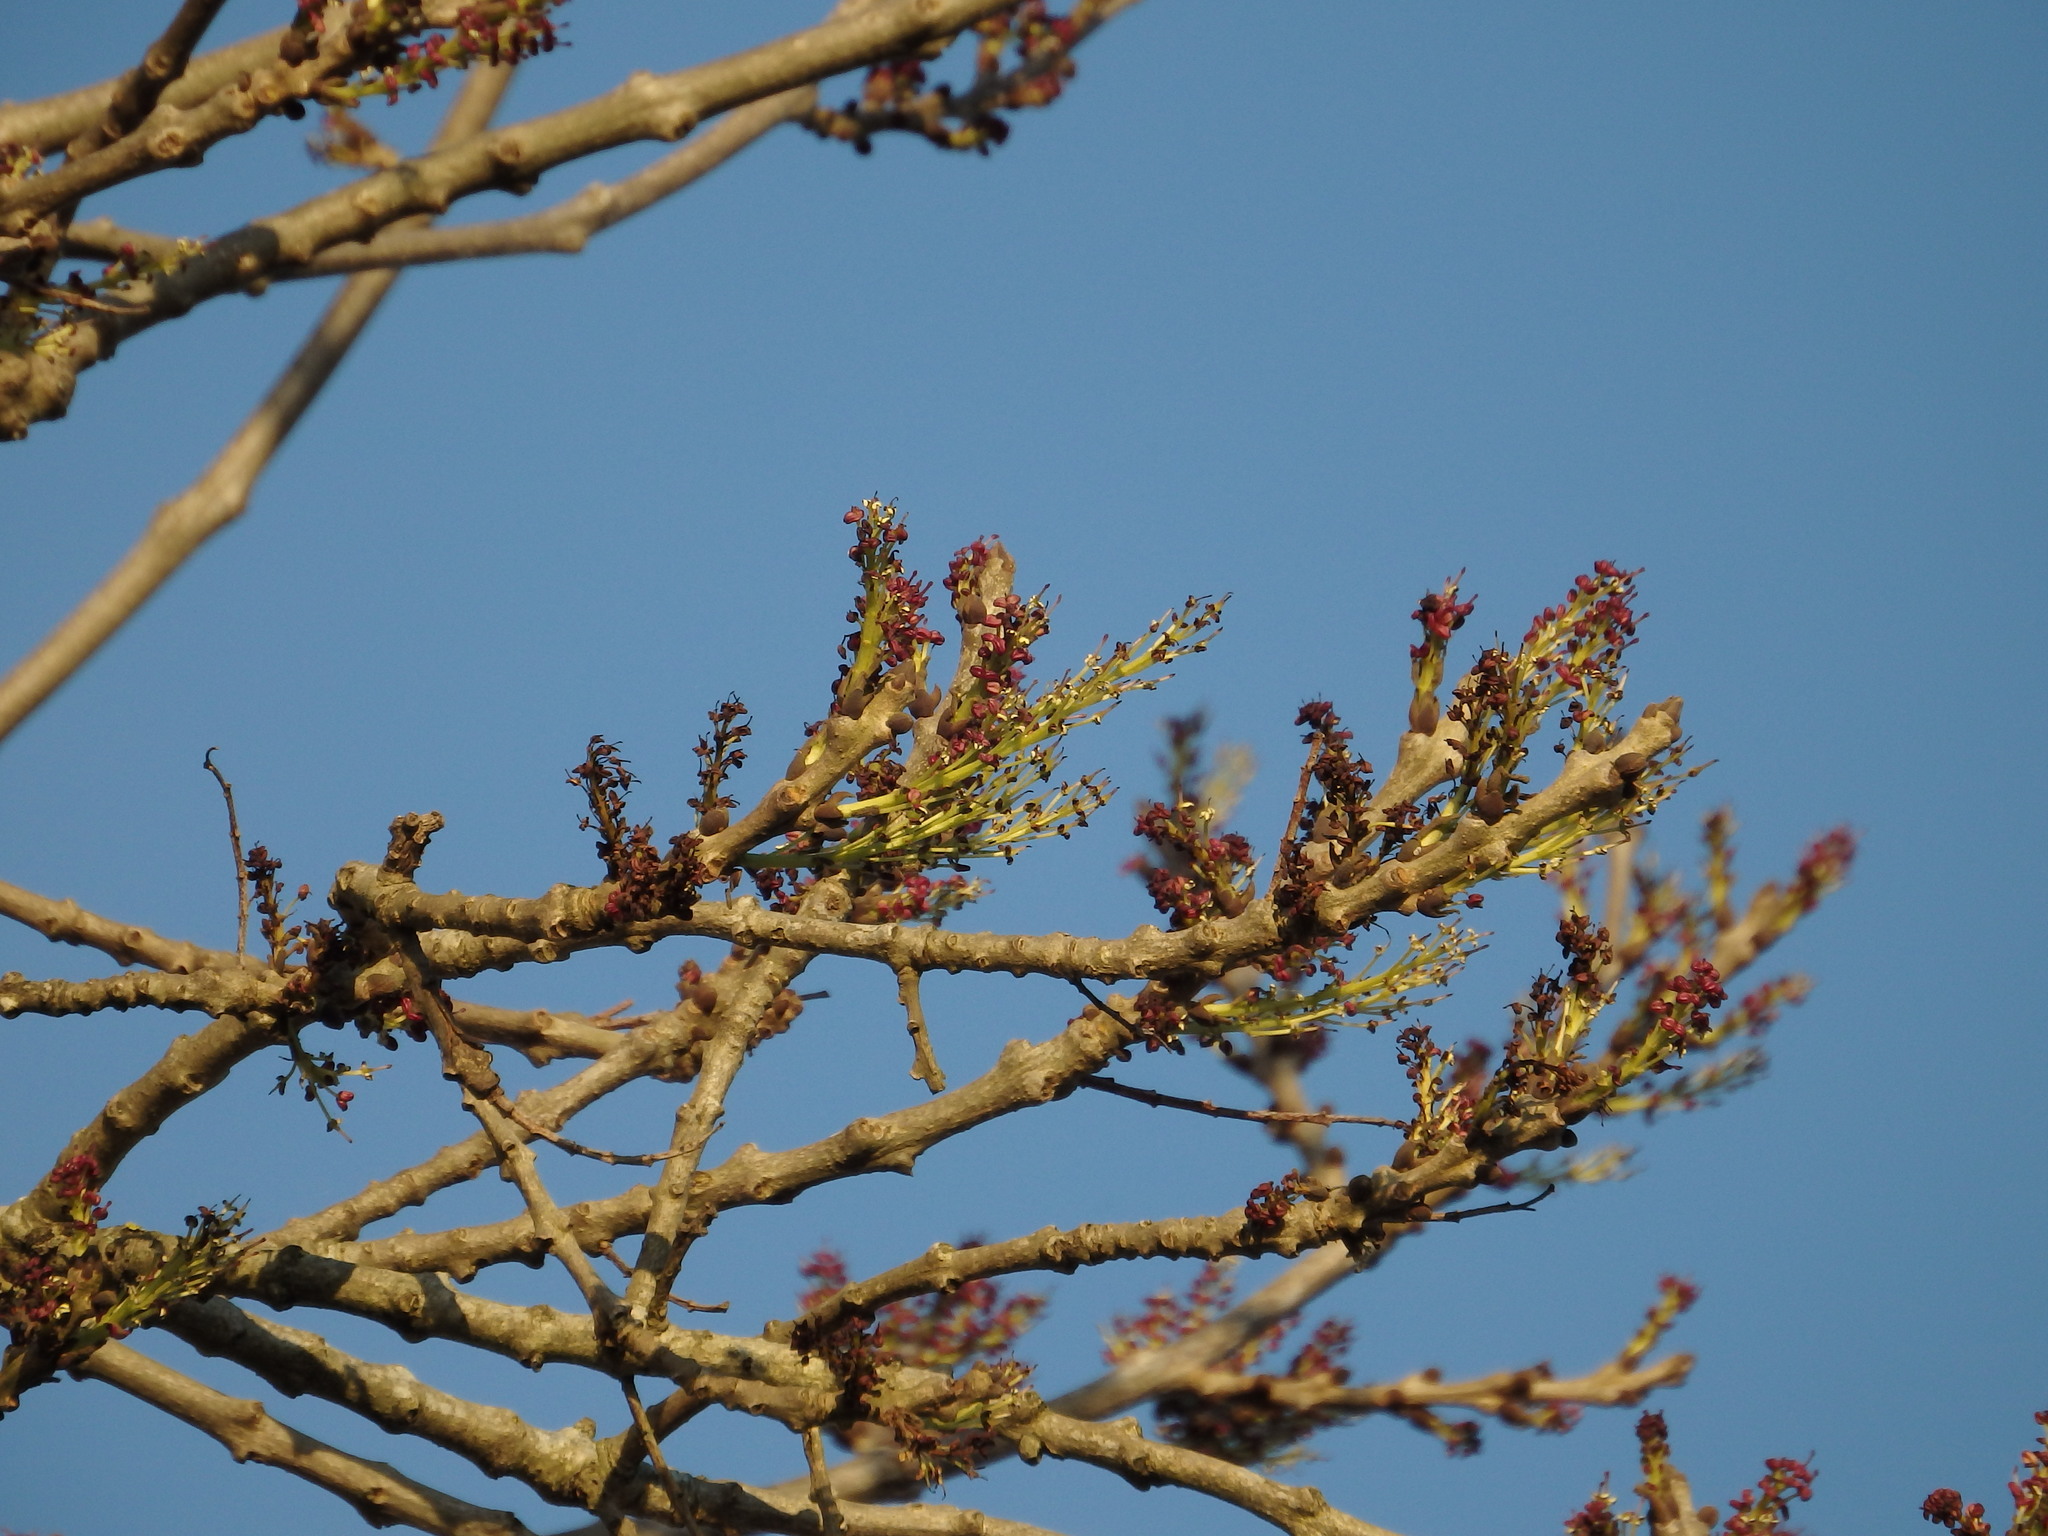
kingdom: Plantae
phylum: Tracheophyta
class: Magnoliopsida
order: Lamiales
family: Oleaceae
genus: Fraxinus
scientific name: Fraxinus angustifolia
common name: Narrow-leafed ash
